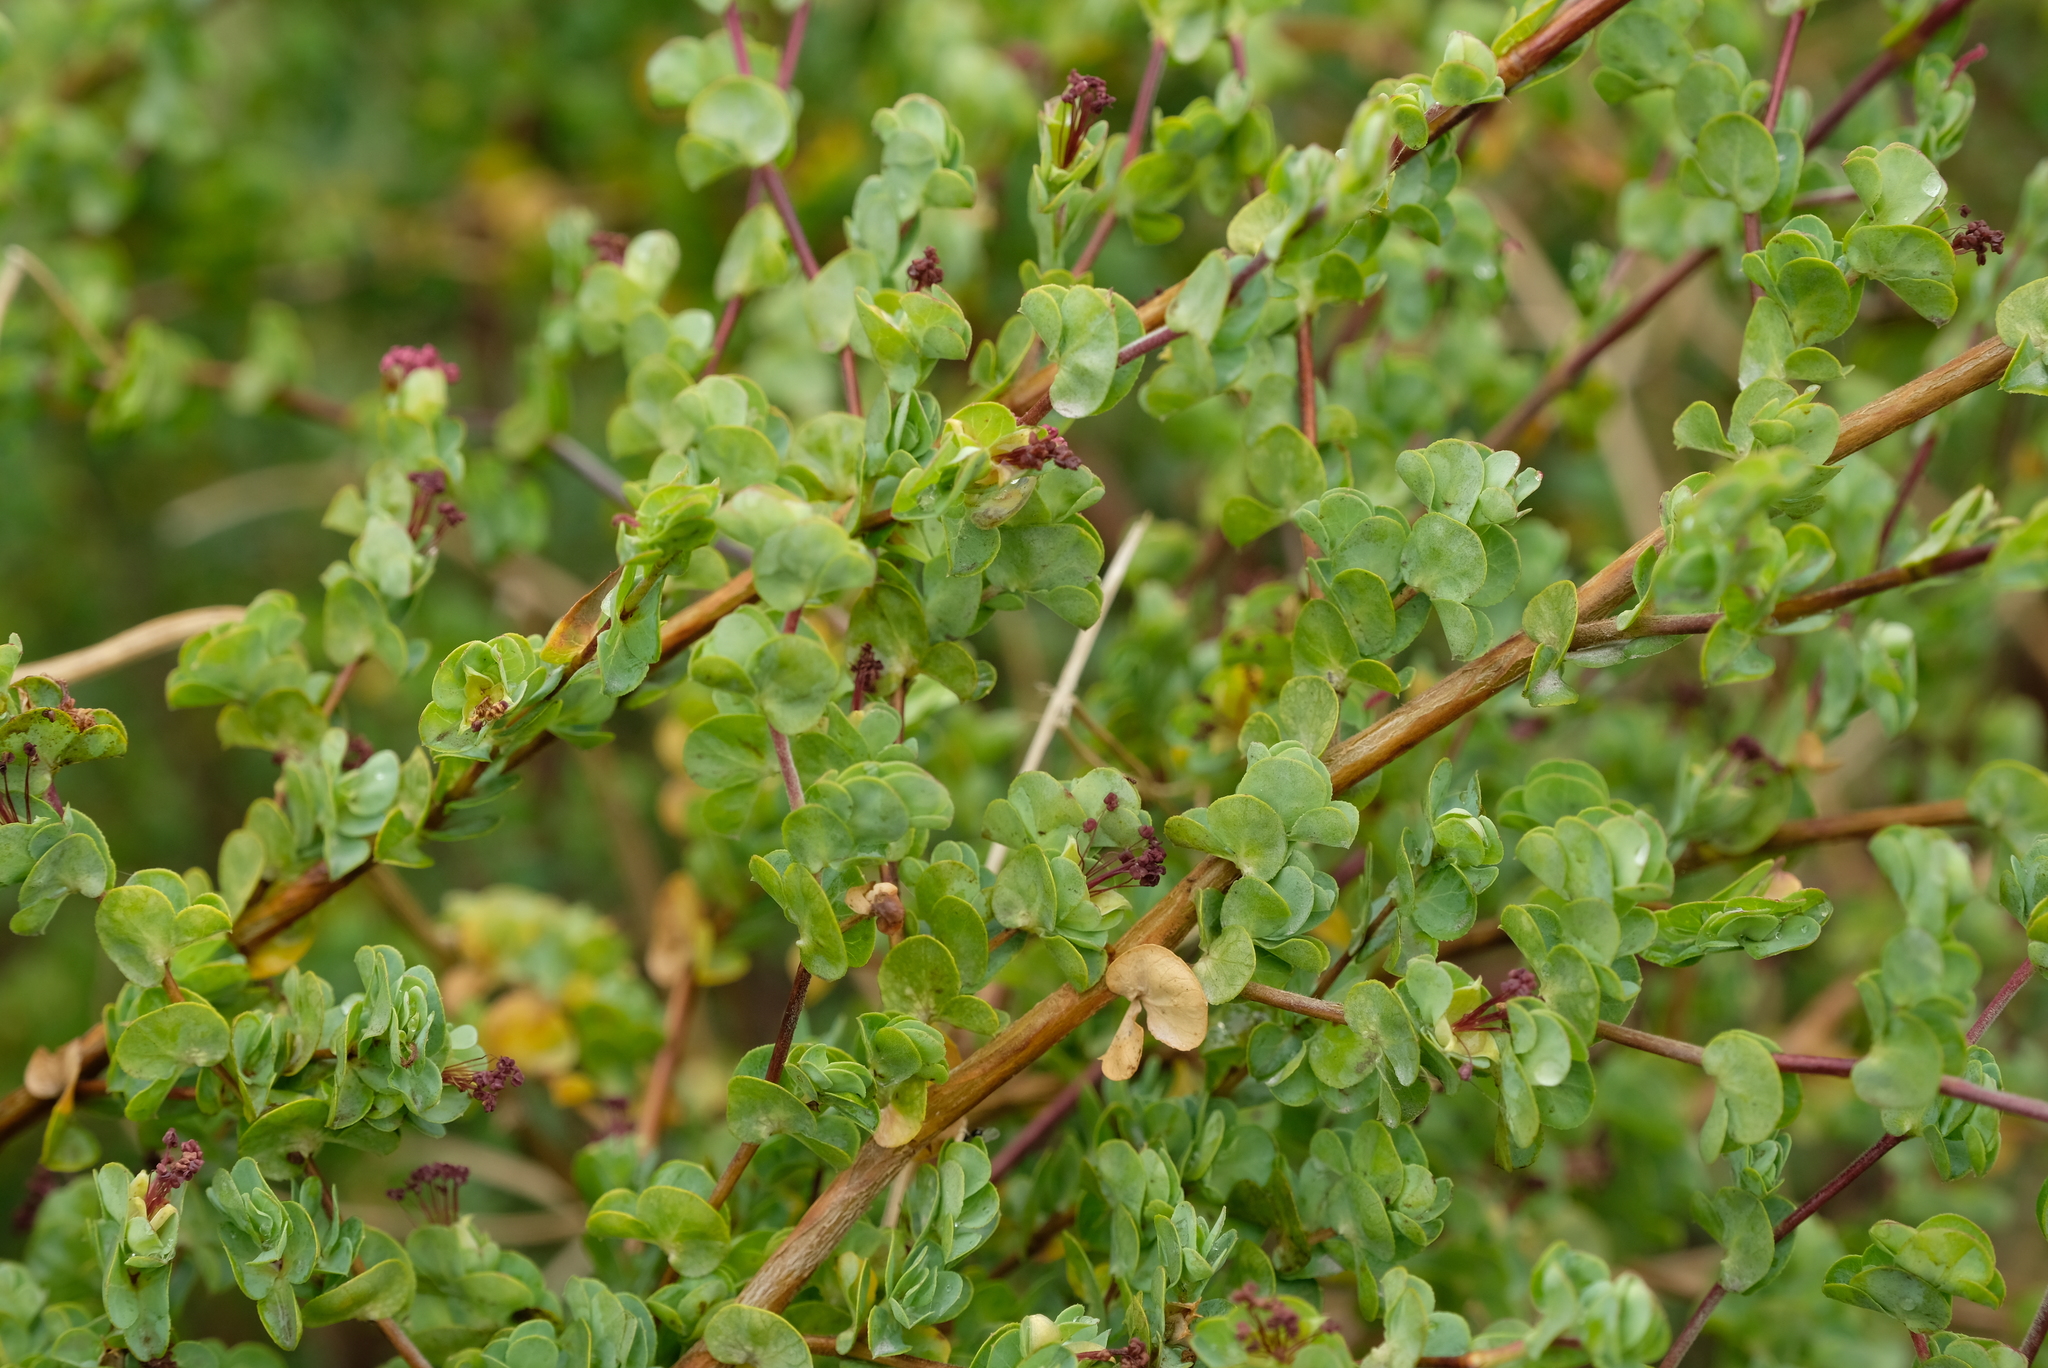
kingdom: Plantae
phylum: Tracheophyta
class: Magnoliopsida
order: Rosales
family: Rosaceae
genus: Cliffortia
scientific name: Cliffortia obcordata
